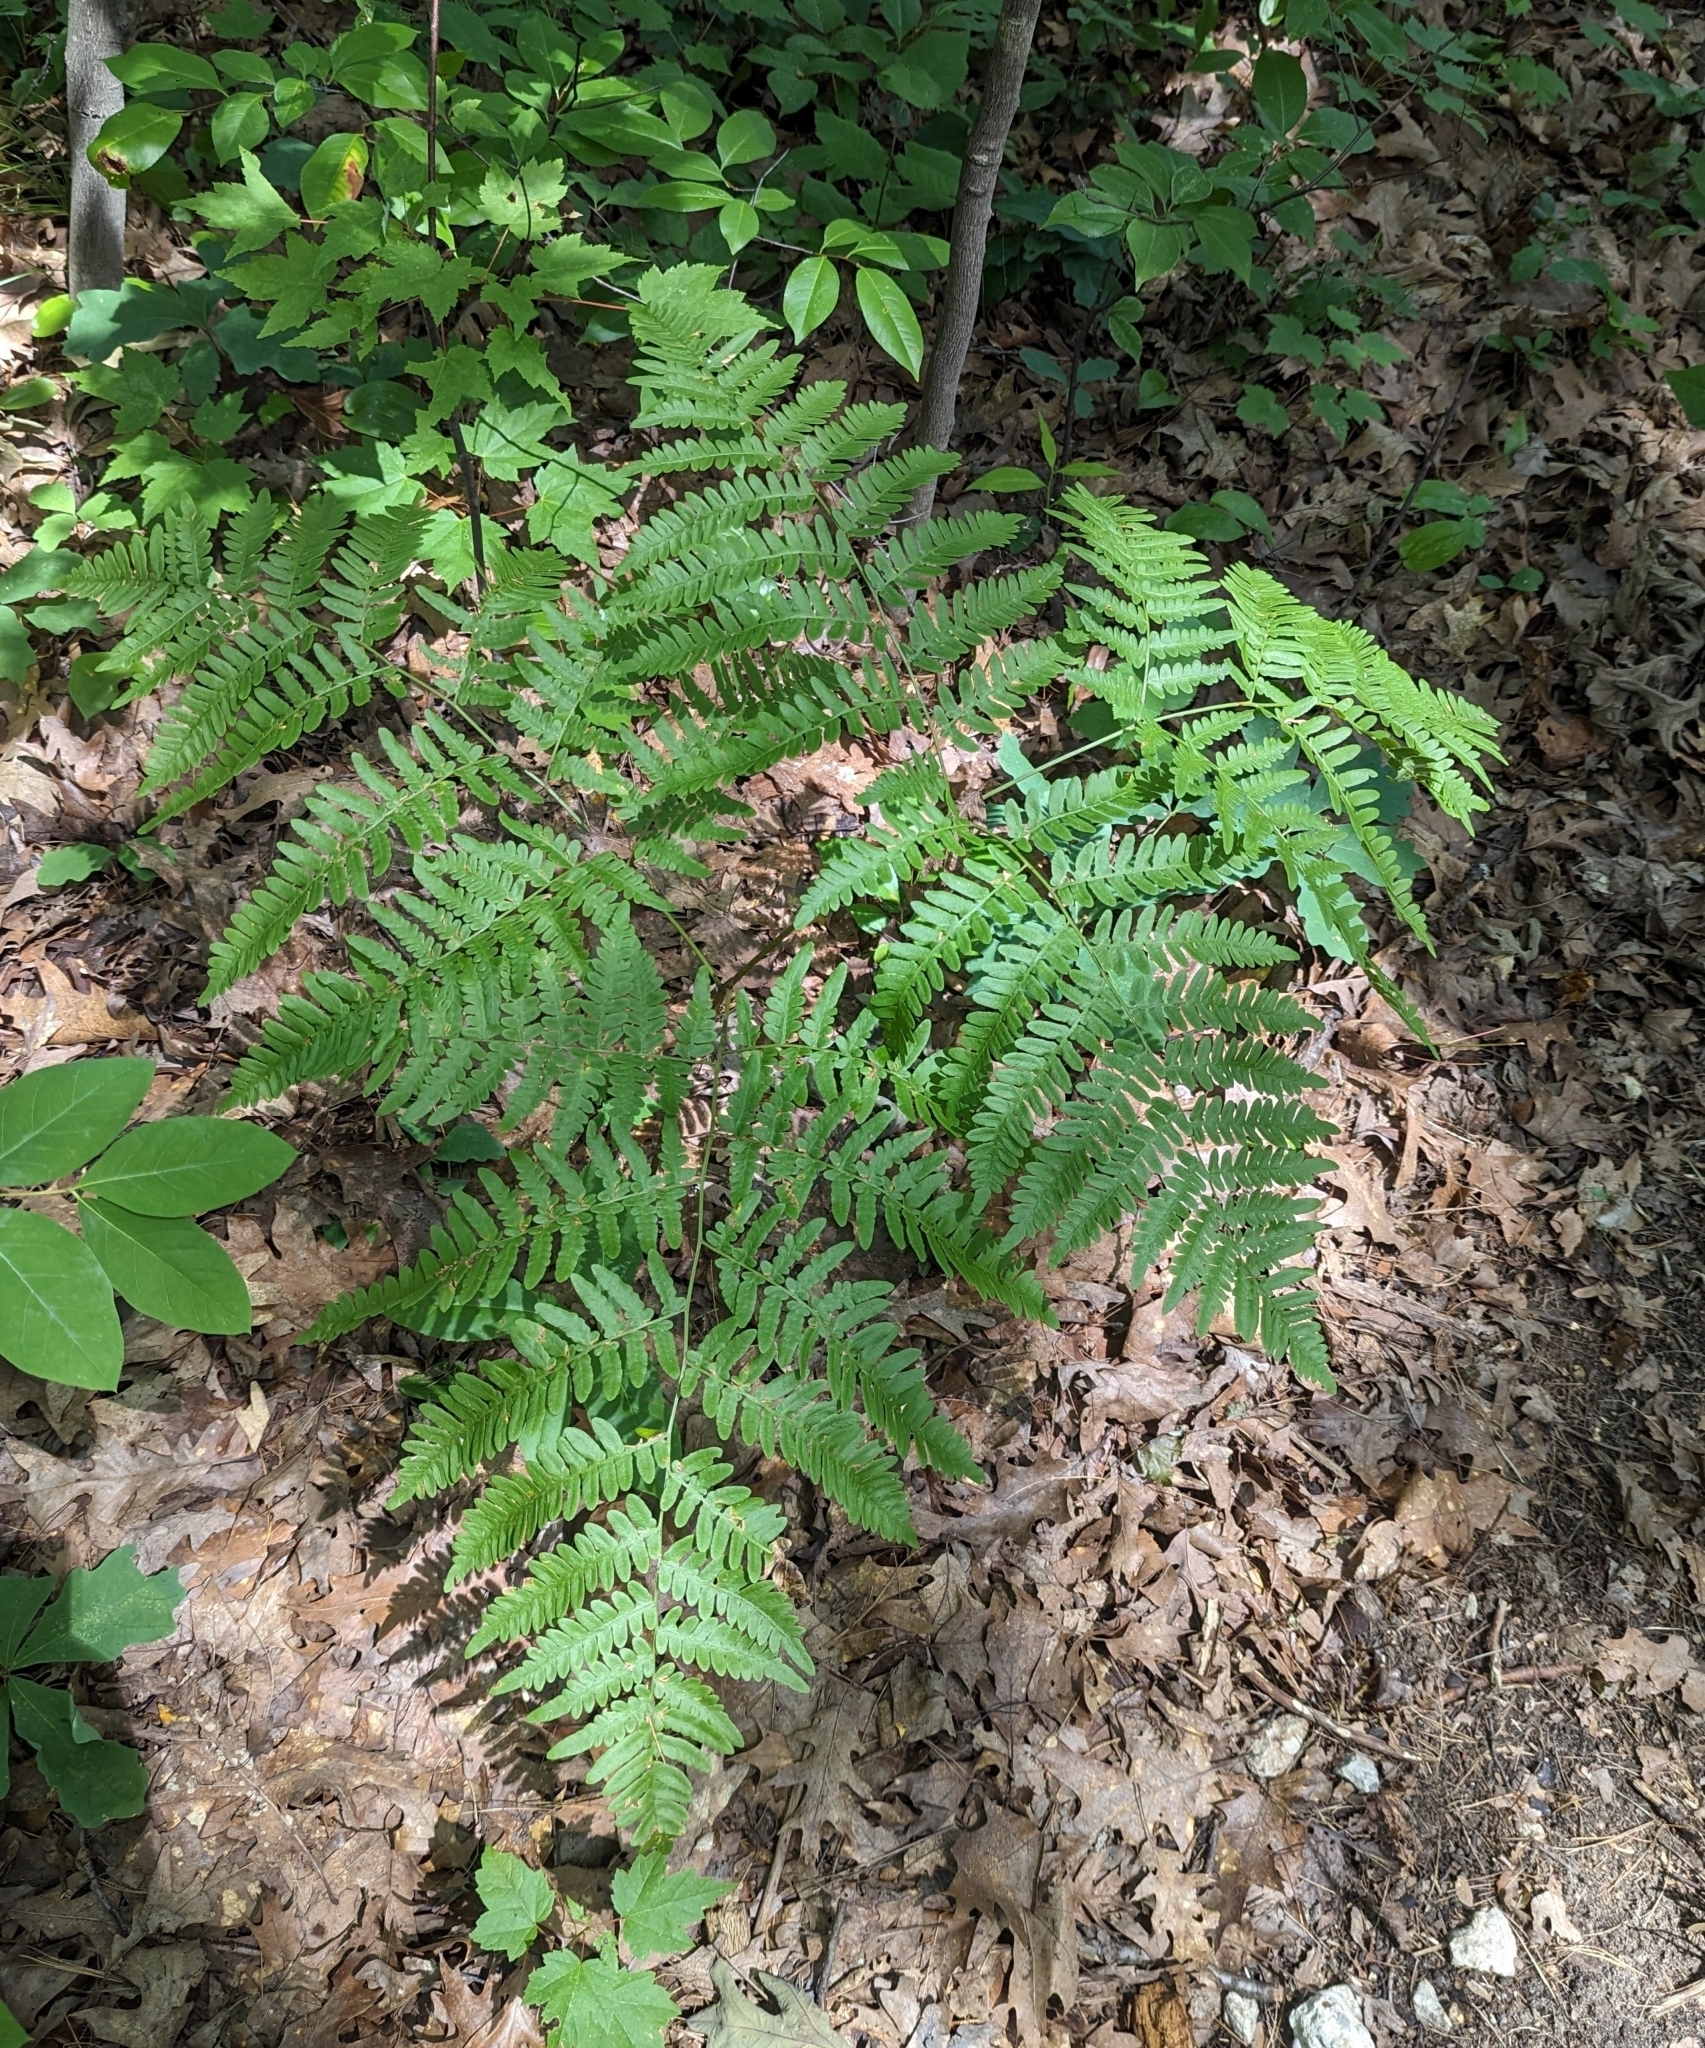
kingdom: Plantae
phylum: Tracheophyta
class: Polypodiopsida
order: Polypodiales
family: Dennstaedtiaceae
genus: Pteridium
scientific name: Pteridium aquilinum
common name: Bracken
